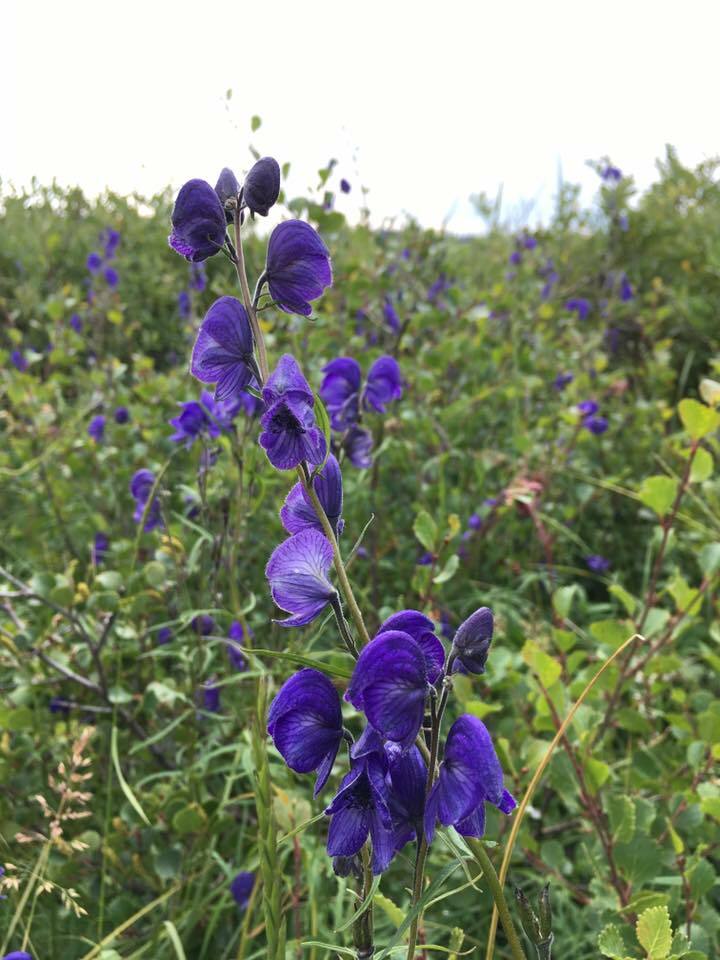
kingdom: Plantae
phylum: Tracheophyta
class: Magnoliopsida
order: Ranunculales
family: Ranunculaceae
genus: Aconitum
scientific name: Aconitum delphiniifolium
